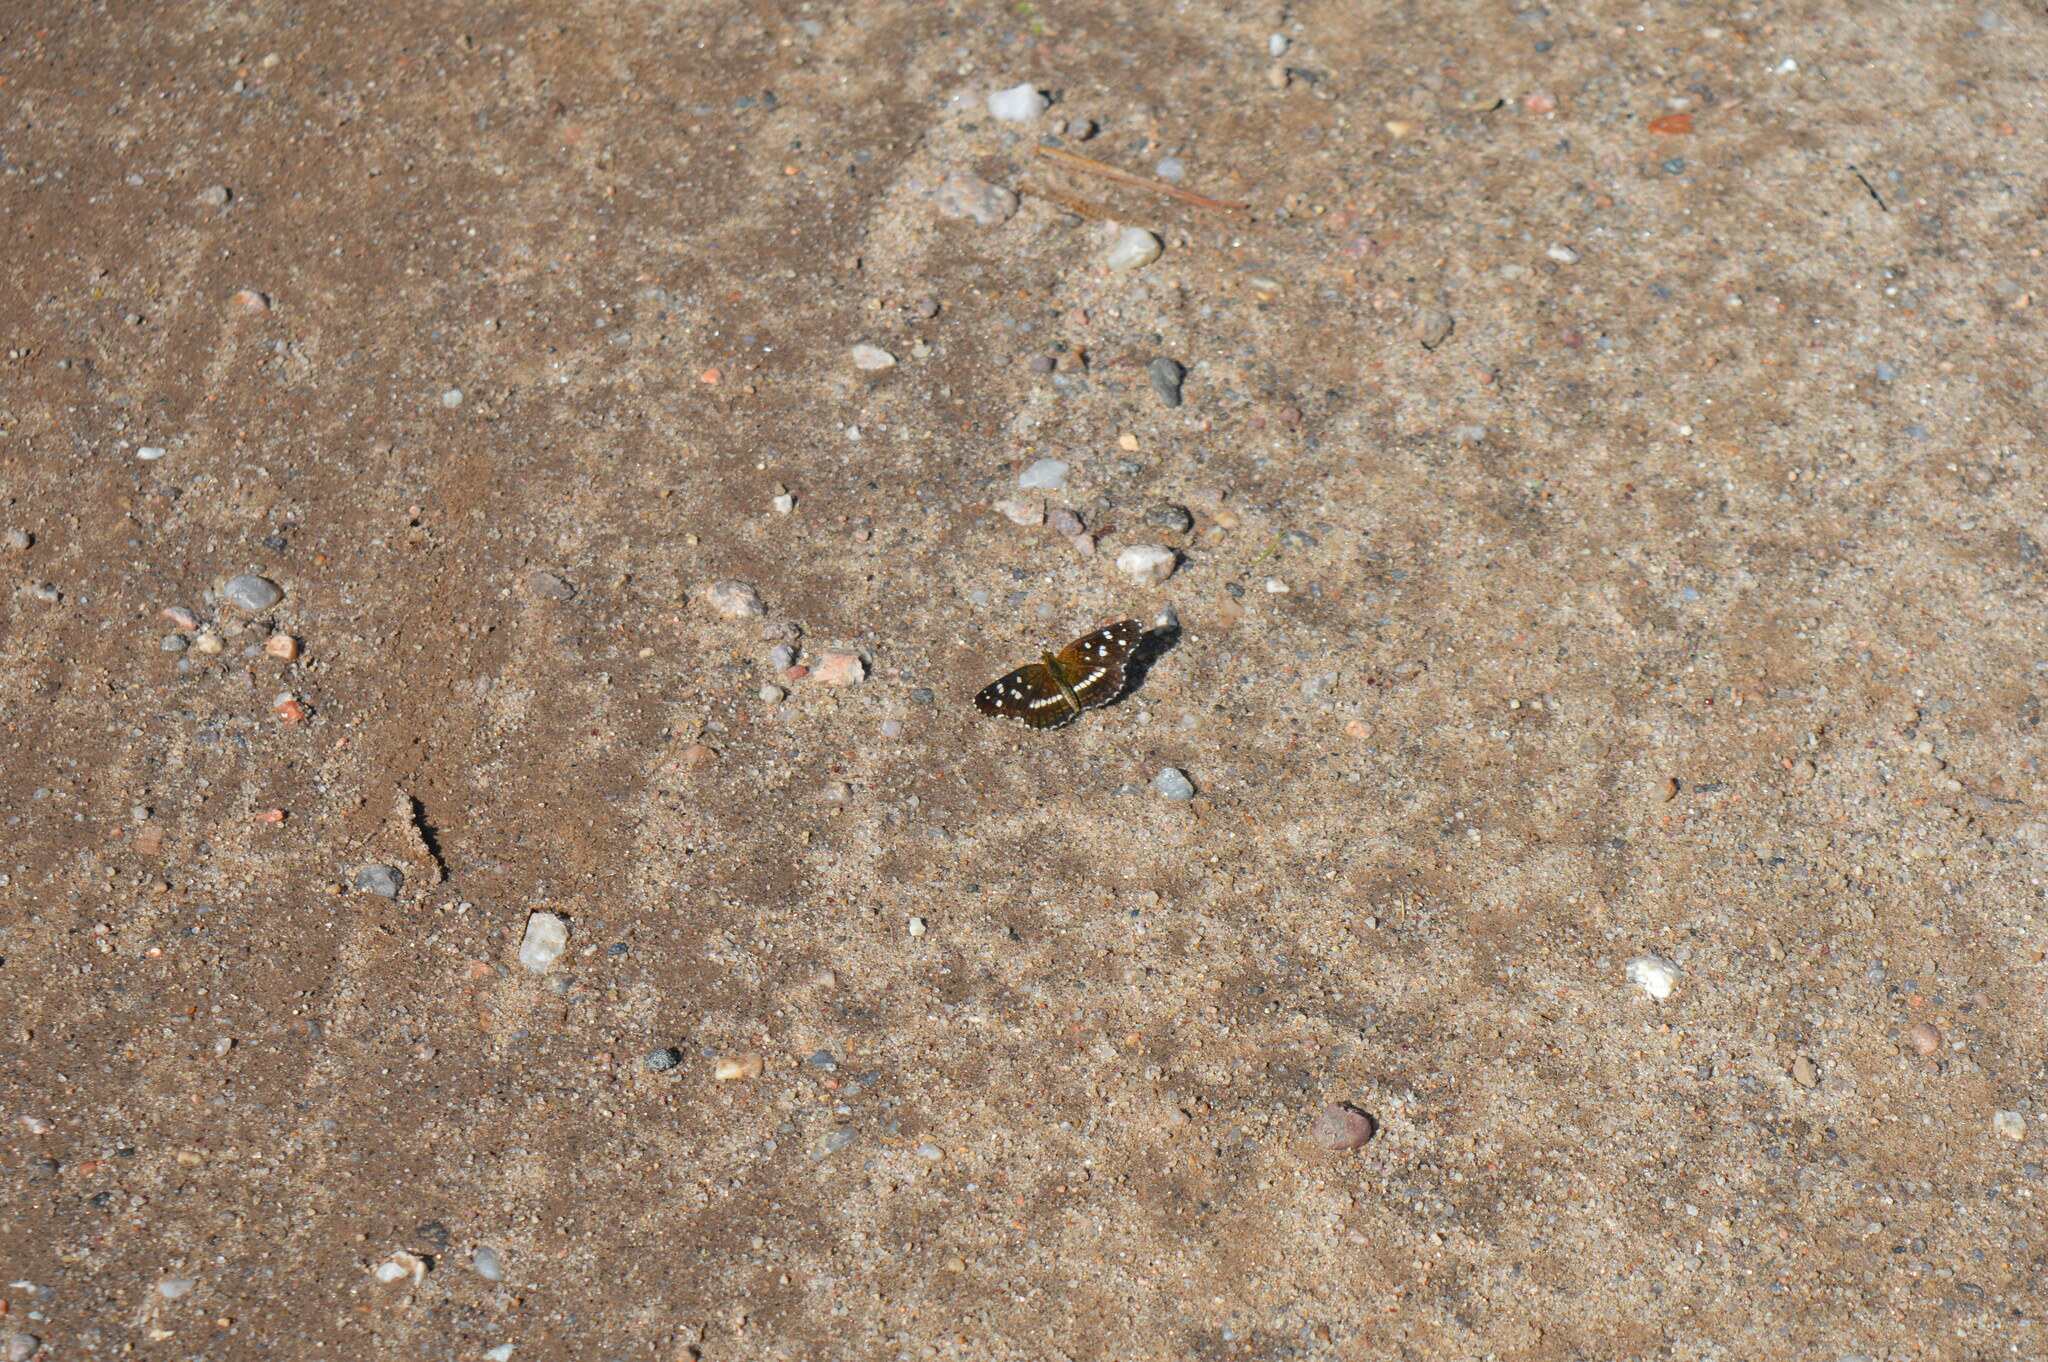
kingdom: Animalia
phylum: Arthropoda
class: Insecta
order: Lepidoptera
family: Nymphalidae
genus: Ortilia
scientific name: Ortilia ithra
